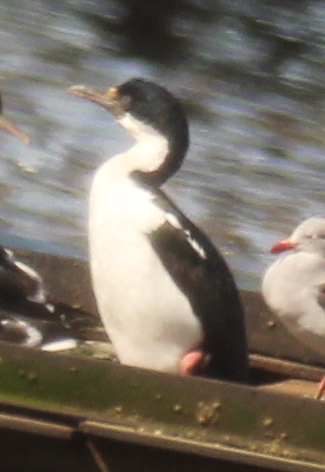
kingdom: Animalia
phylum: Chordata
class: Aves
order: Suliformes
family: Phalacrocoracidae
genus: Leucocarbo
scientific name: Leucocarbo atriceps
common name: Imperial shag
